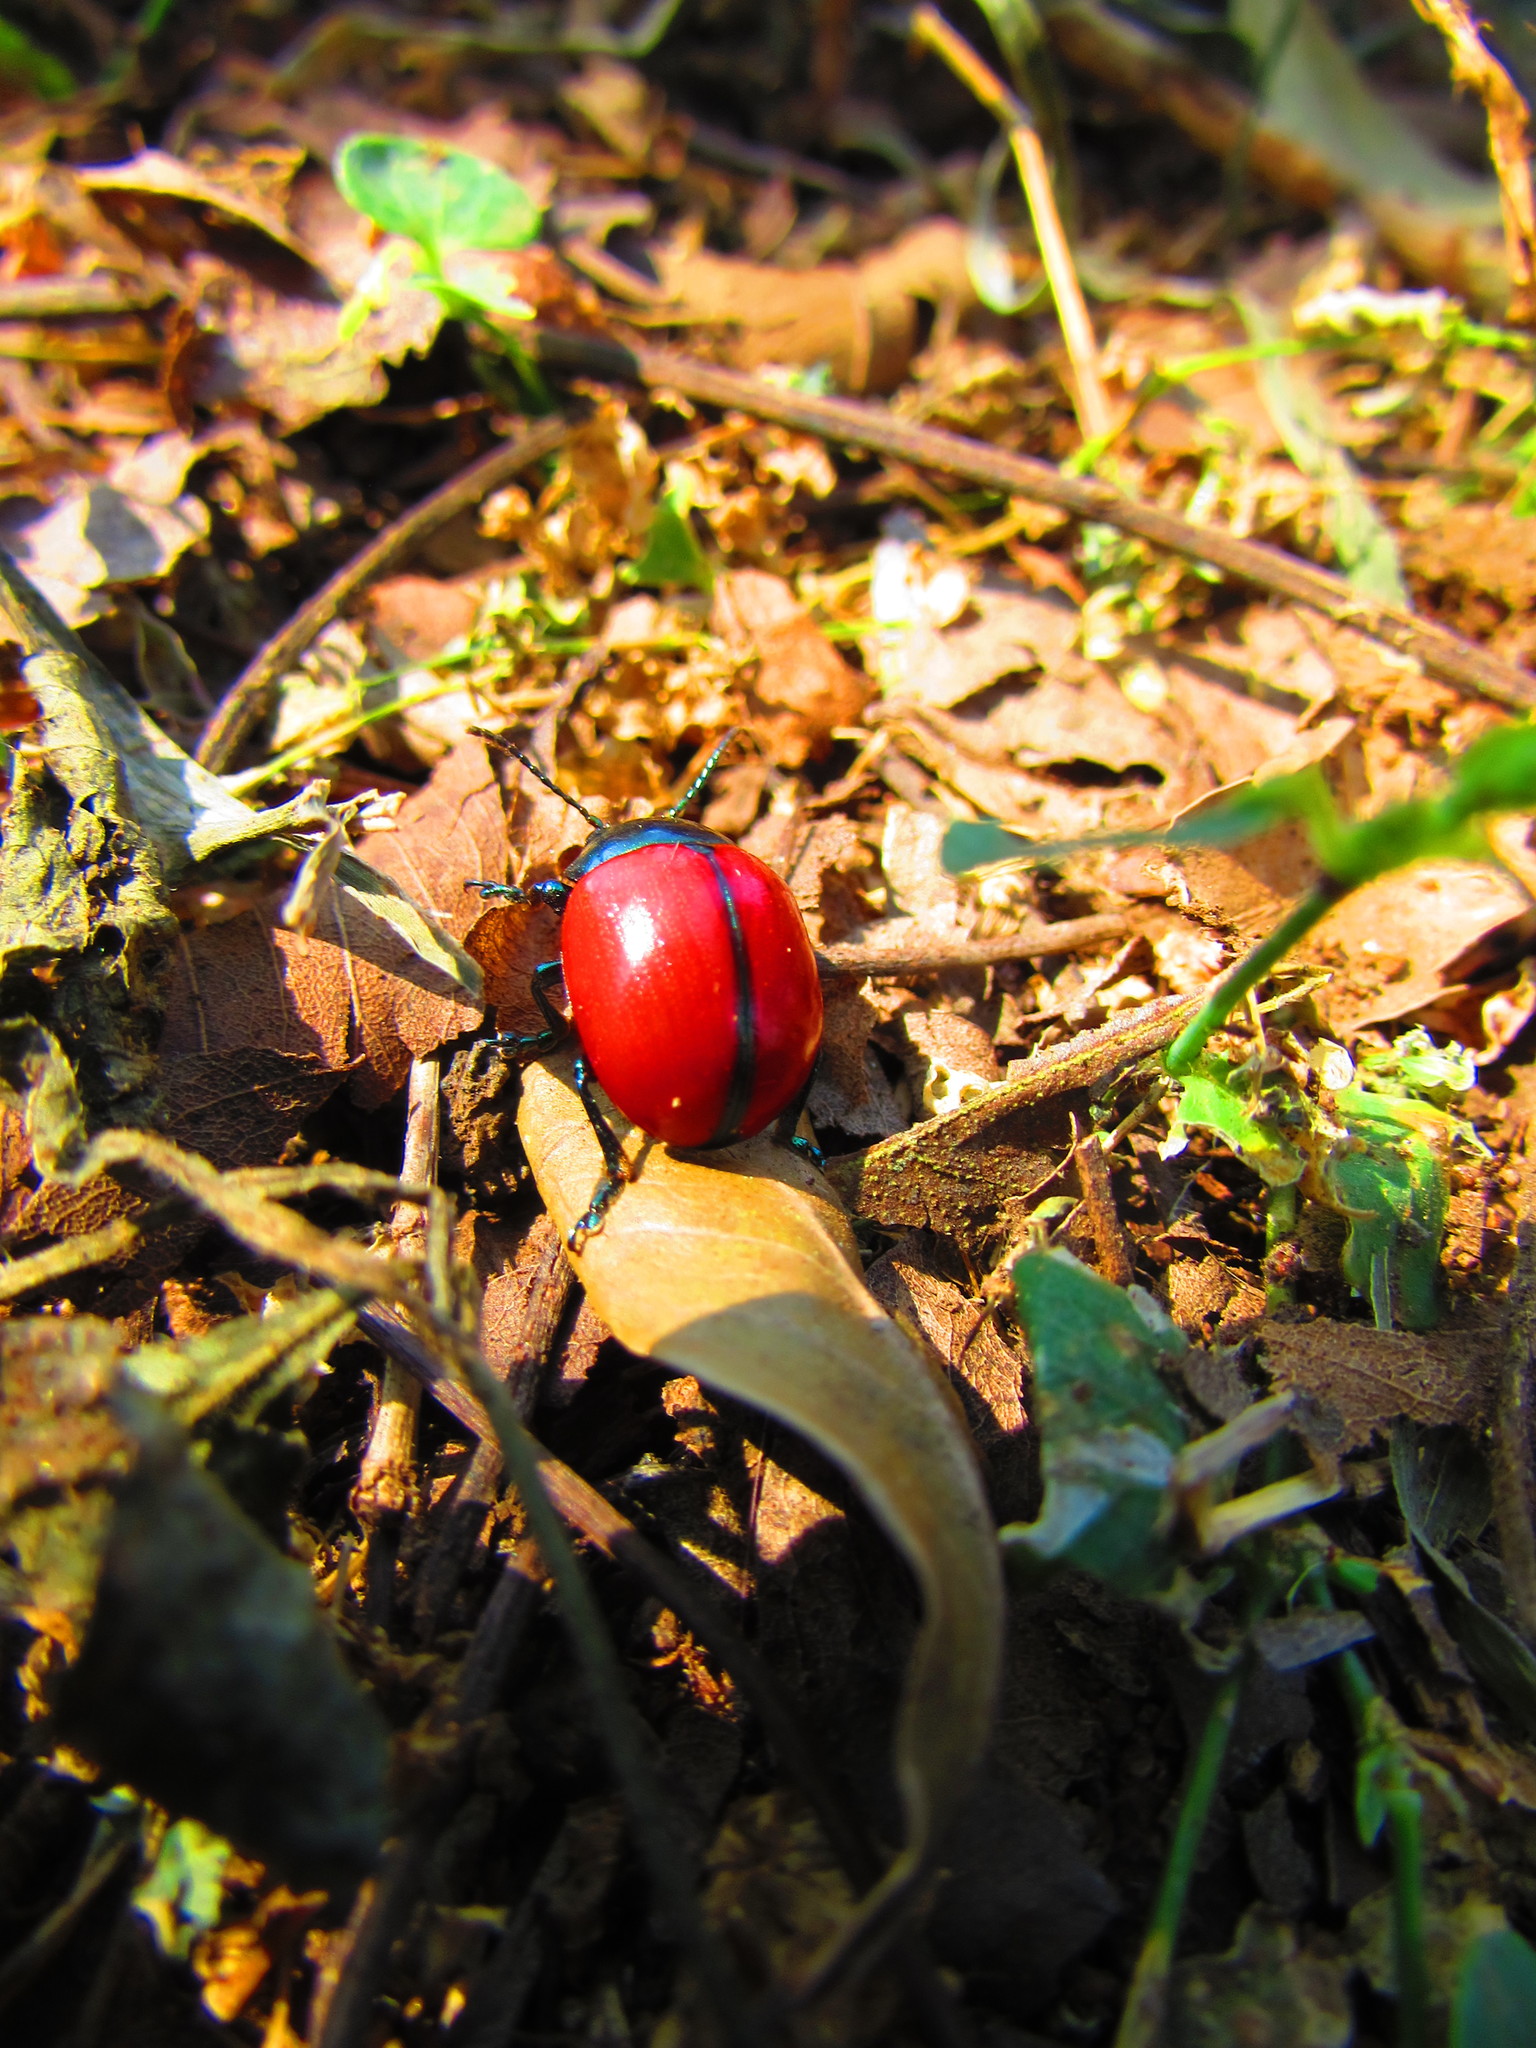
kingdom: Animalia
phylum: Arthropoda
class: Insecta
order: Coleoptera
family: Chrysomelidae
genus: Labidomera
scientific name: Labidomera
